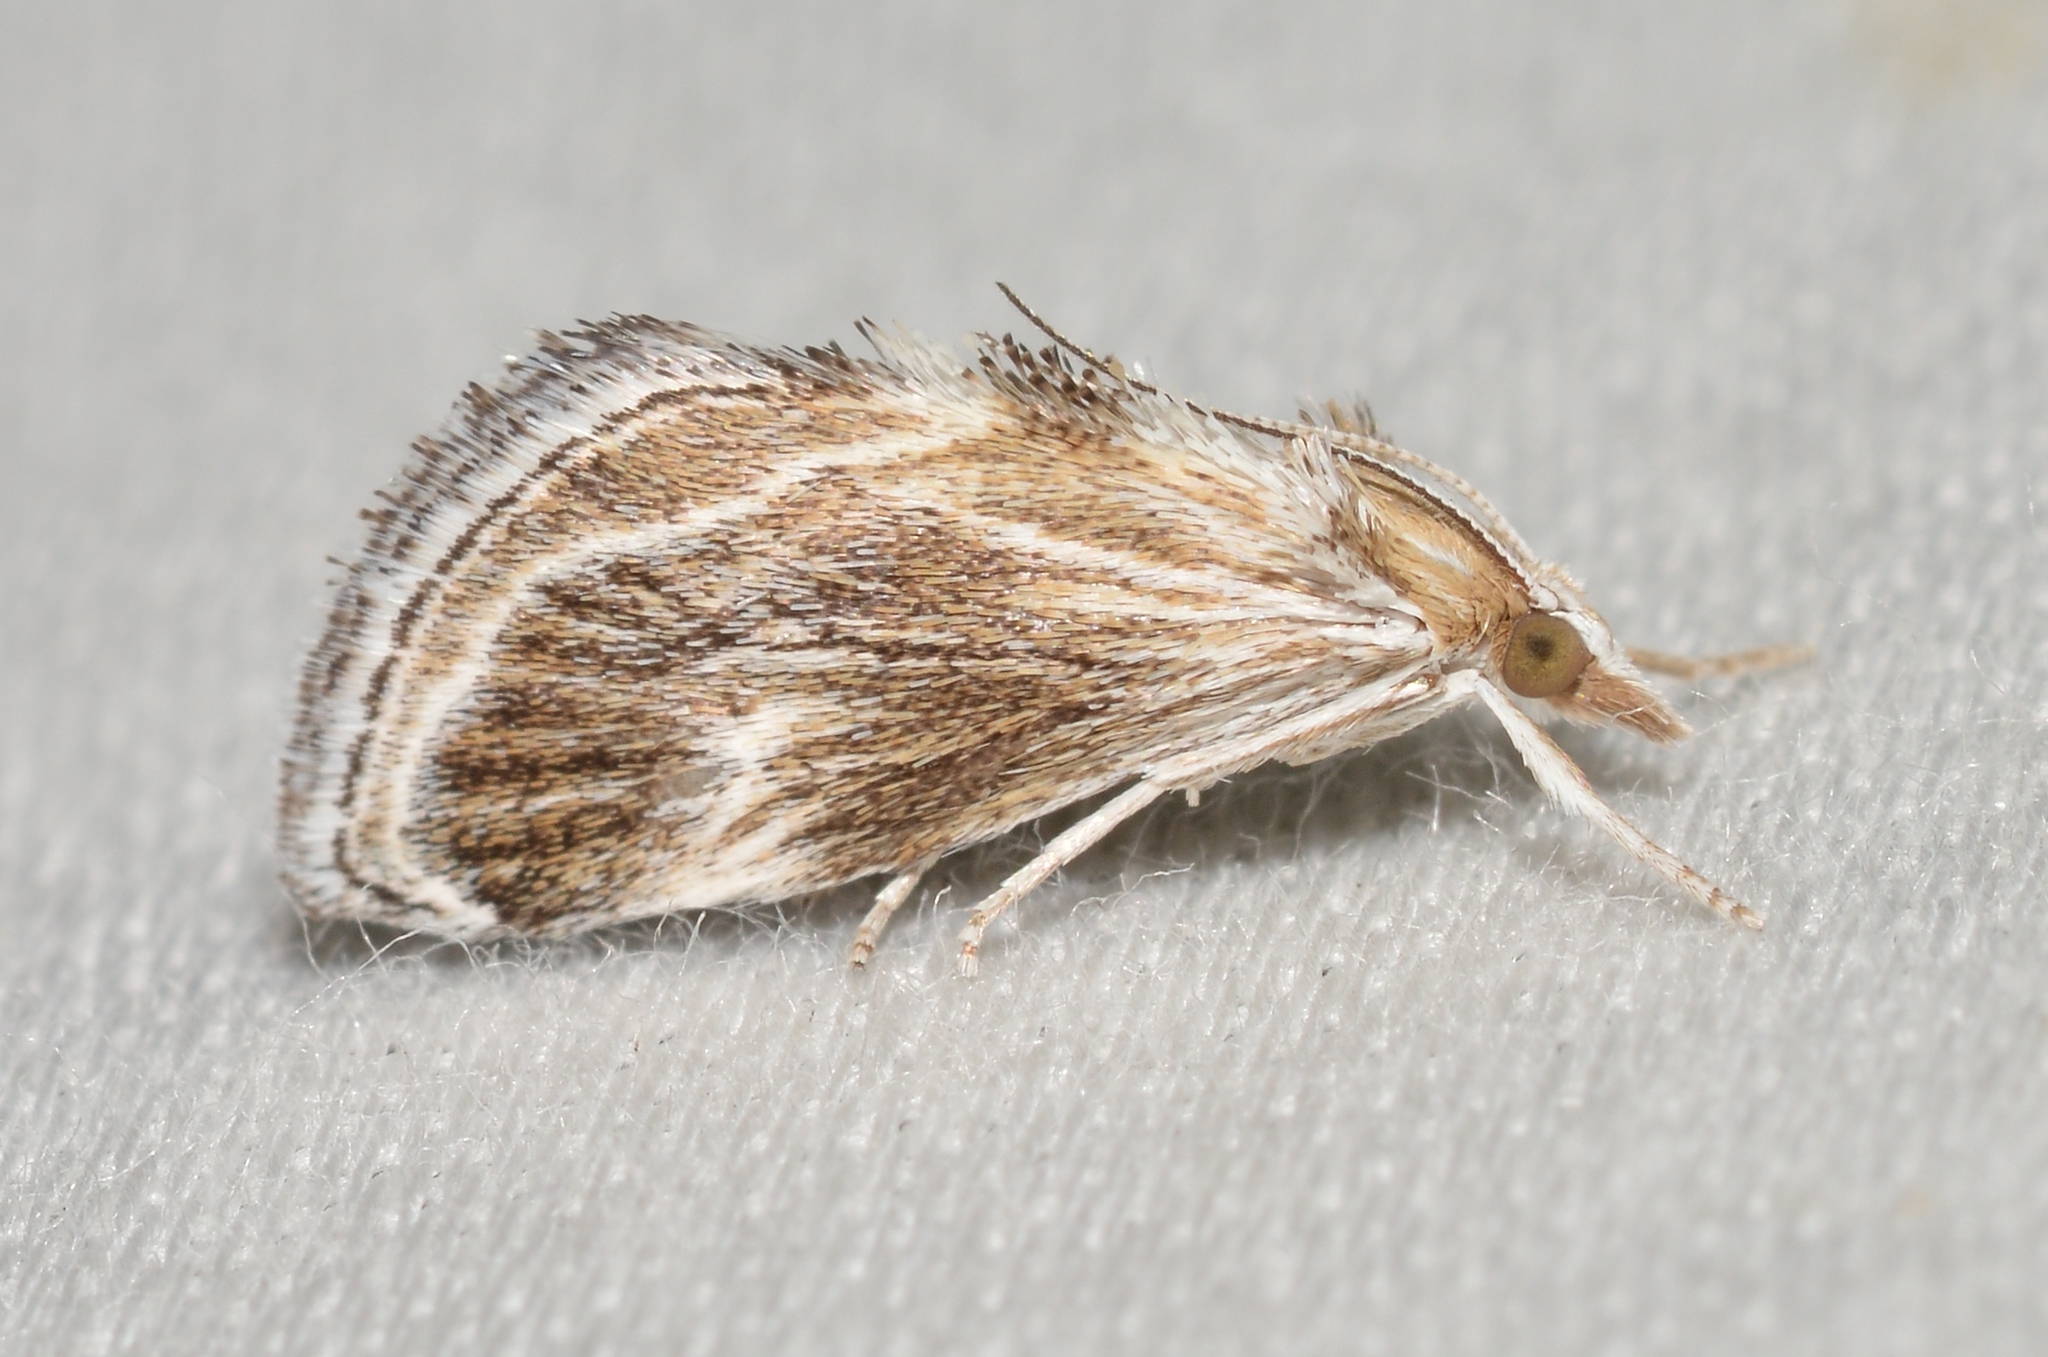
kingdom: Animalia
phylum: Arthropoda
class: Insecta
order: Lepidoptera
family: Crambidae
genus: Frechinia
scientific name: Frechinia helianthiales
